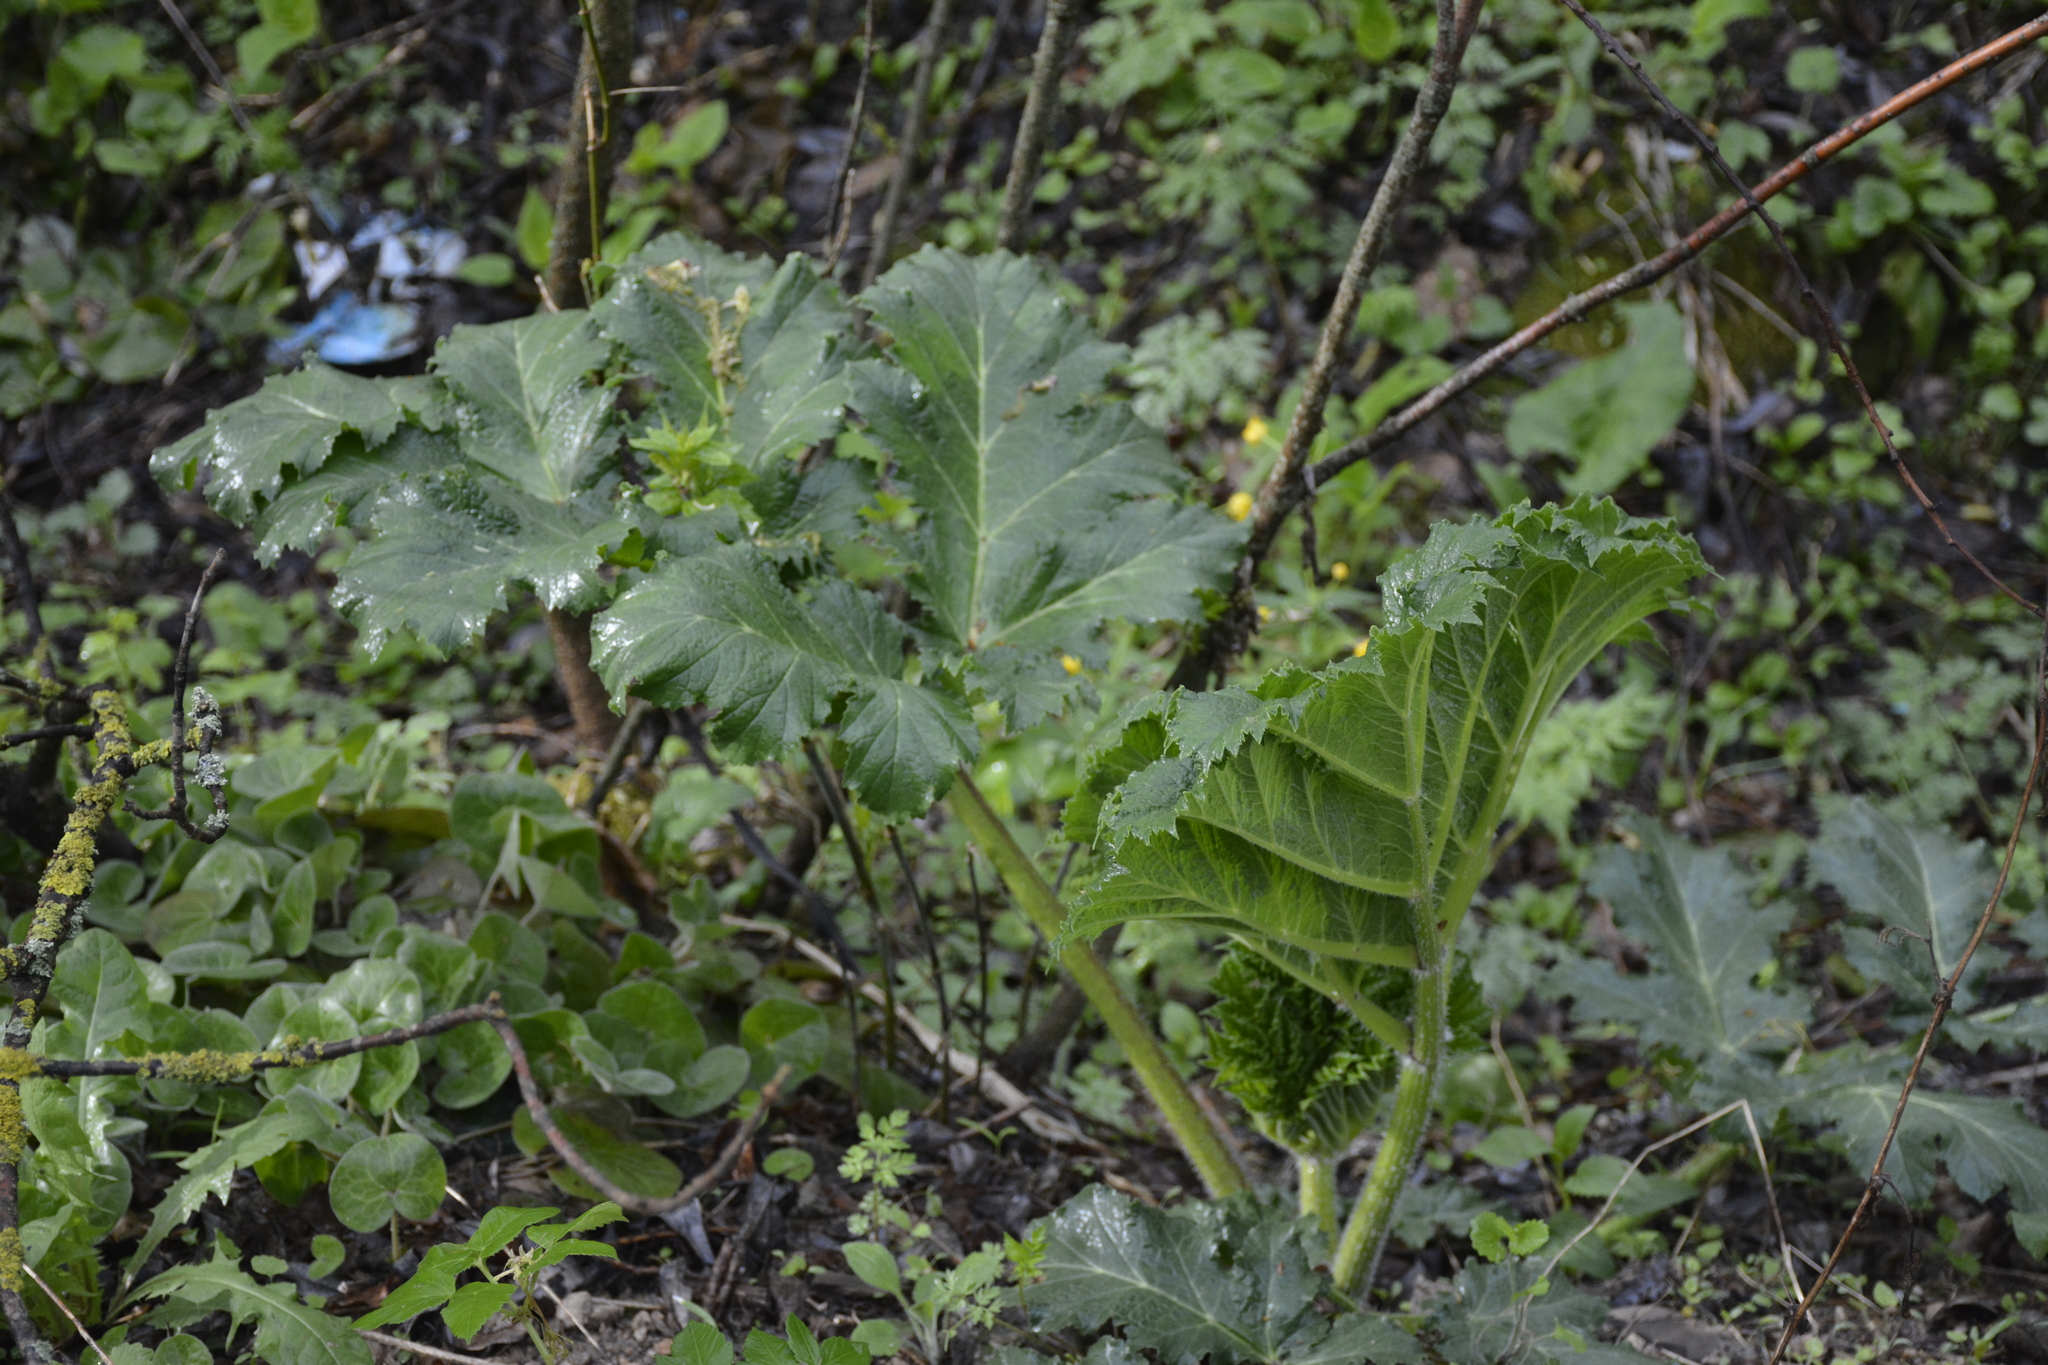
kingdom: Plantae
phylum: Tracheophyta
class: Magnoliopsida
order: Apiales
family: Apiaceae
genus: Heracleum
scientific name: Heracleum sosnowskyi
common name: Sosnowsky's hogweed
